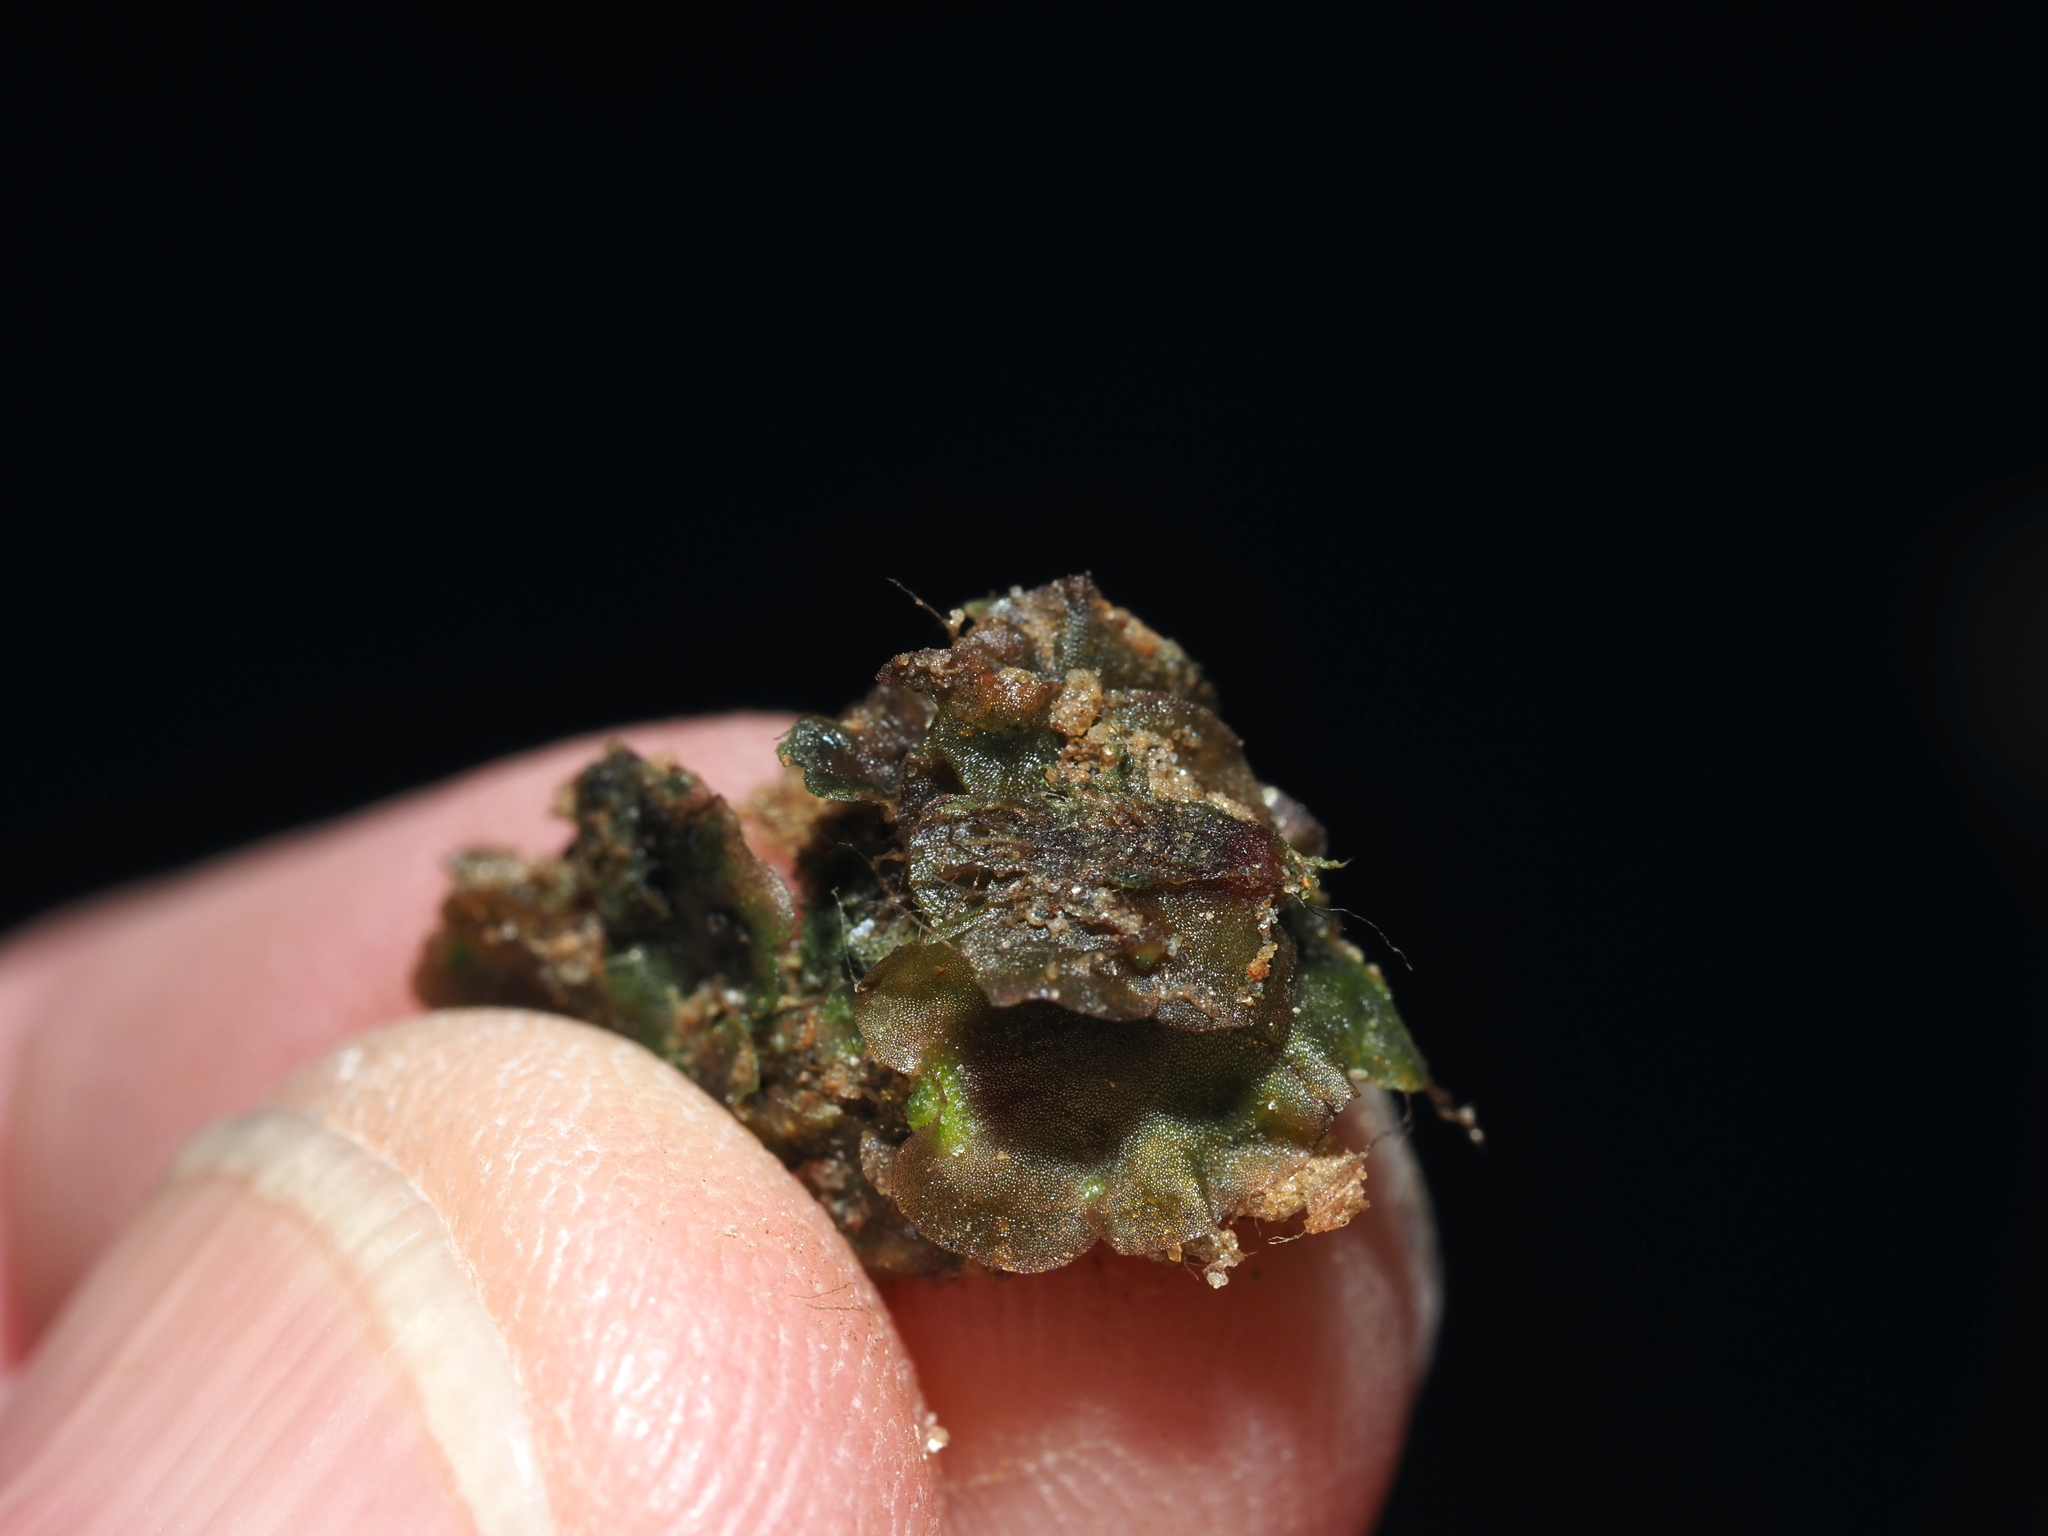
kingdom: Plantae
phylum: Marchantiophyta
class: Marchantiopsida
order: Marchantiales
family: Marchantiaceae
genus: Marchantia
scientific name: Marchantia polymorpha
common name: Common liverwort
